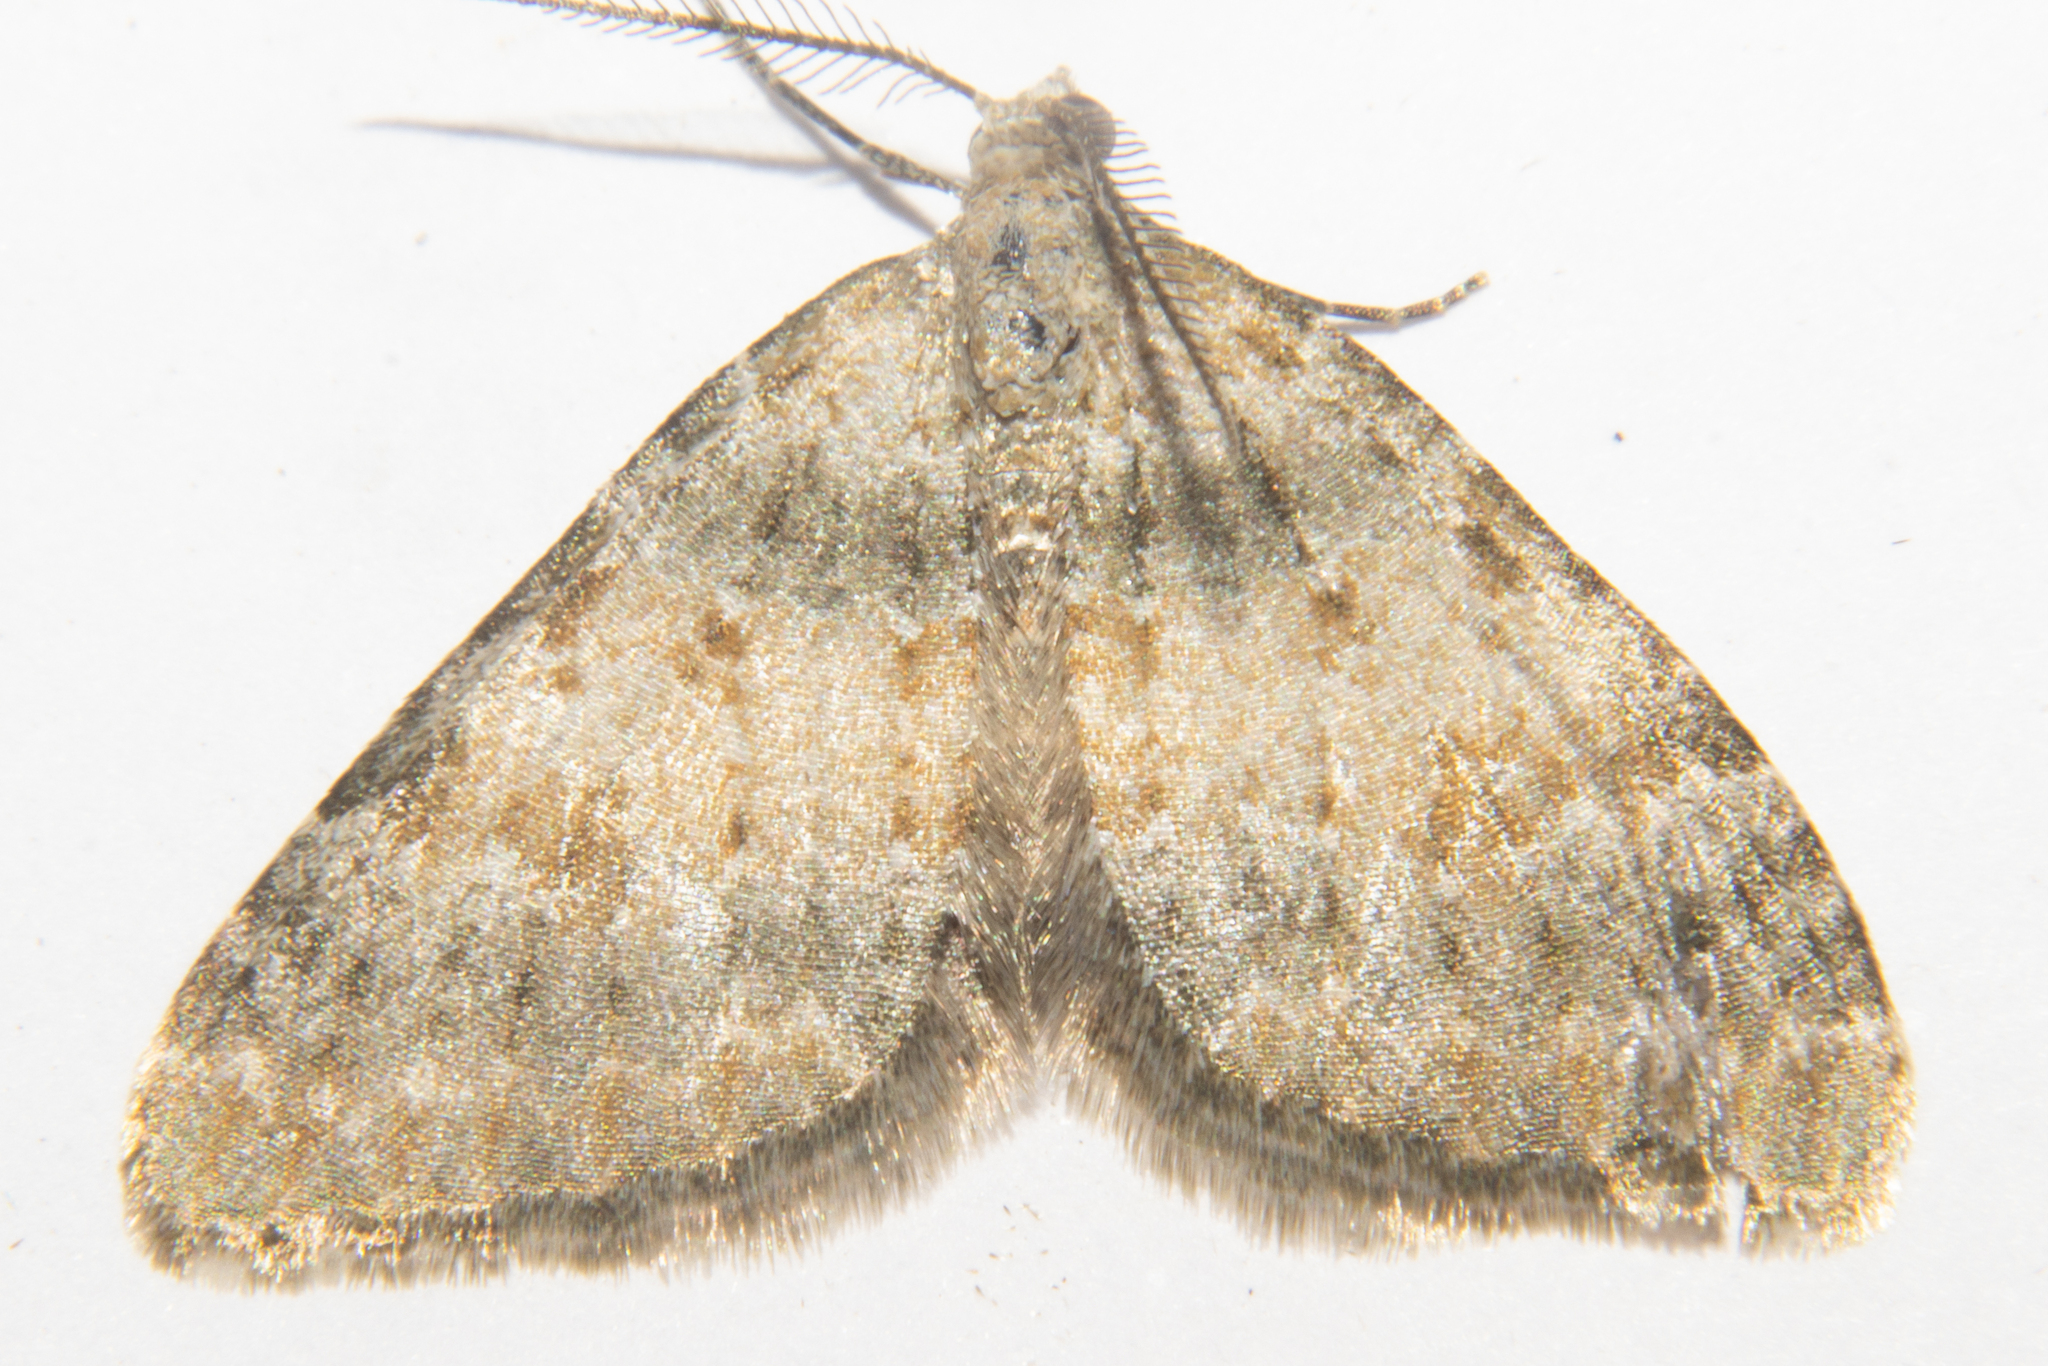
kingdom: Animalia
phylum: Arthropoda
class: Insecta
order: Lepidoptera
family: Geometridae
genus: Helastia
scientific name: Helastia christinae
